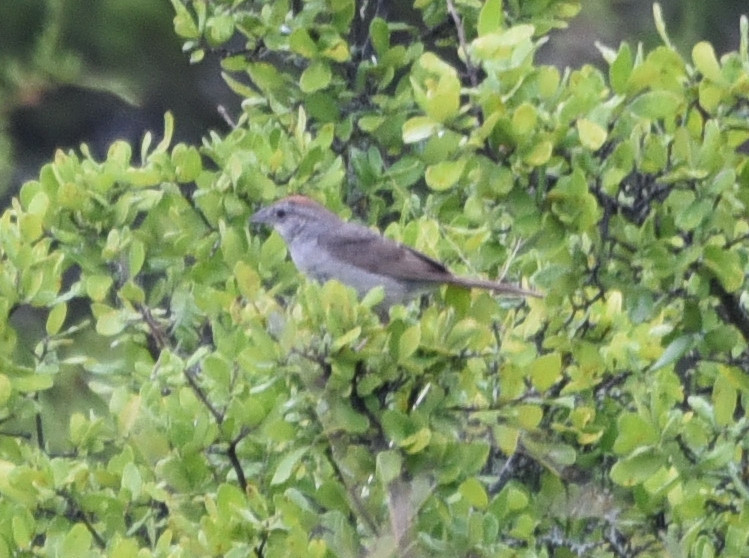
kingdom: Animalia
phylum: Chordata
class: Aves
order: Passeriformes
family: Passerellidae
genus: Aimophila
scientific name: Aimophila ruficeps
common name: Rufous-crowned sparrow
